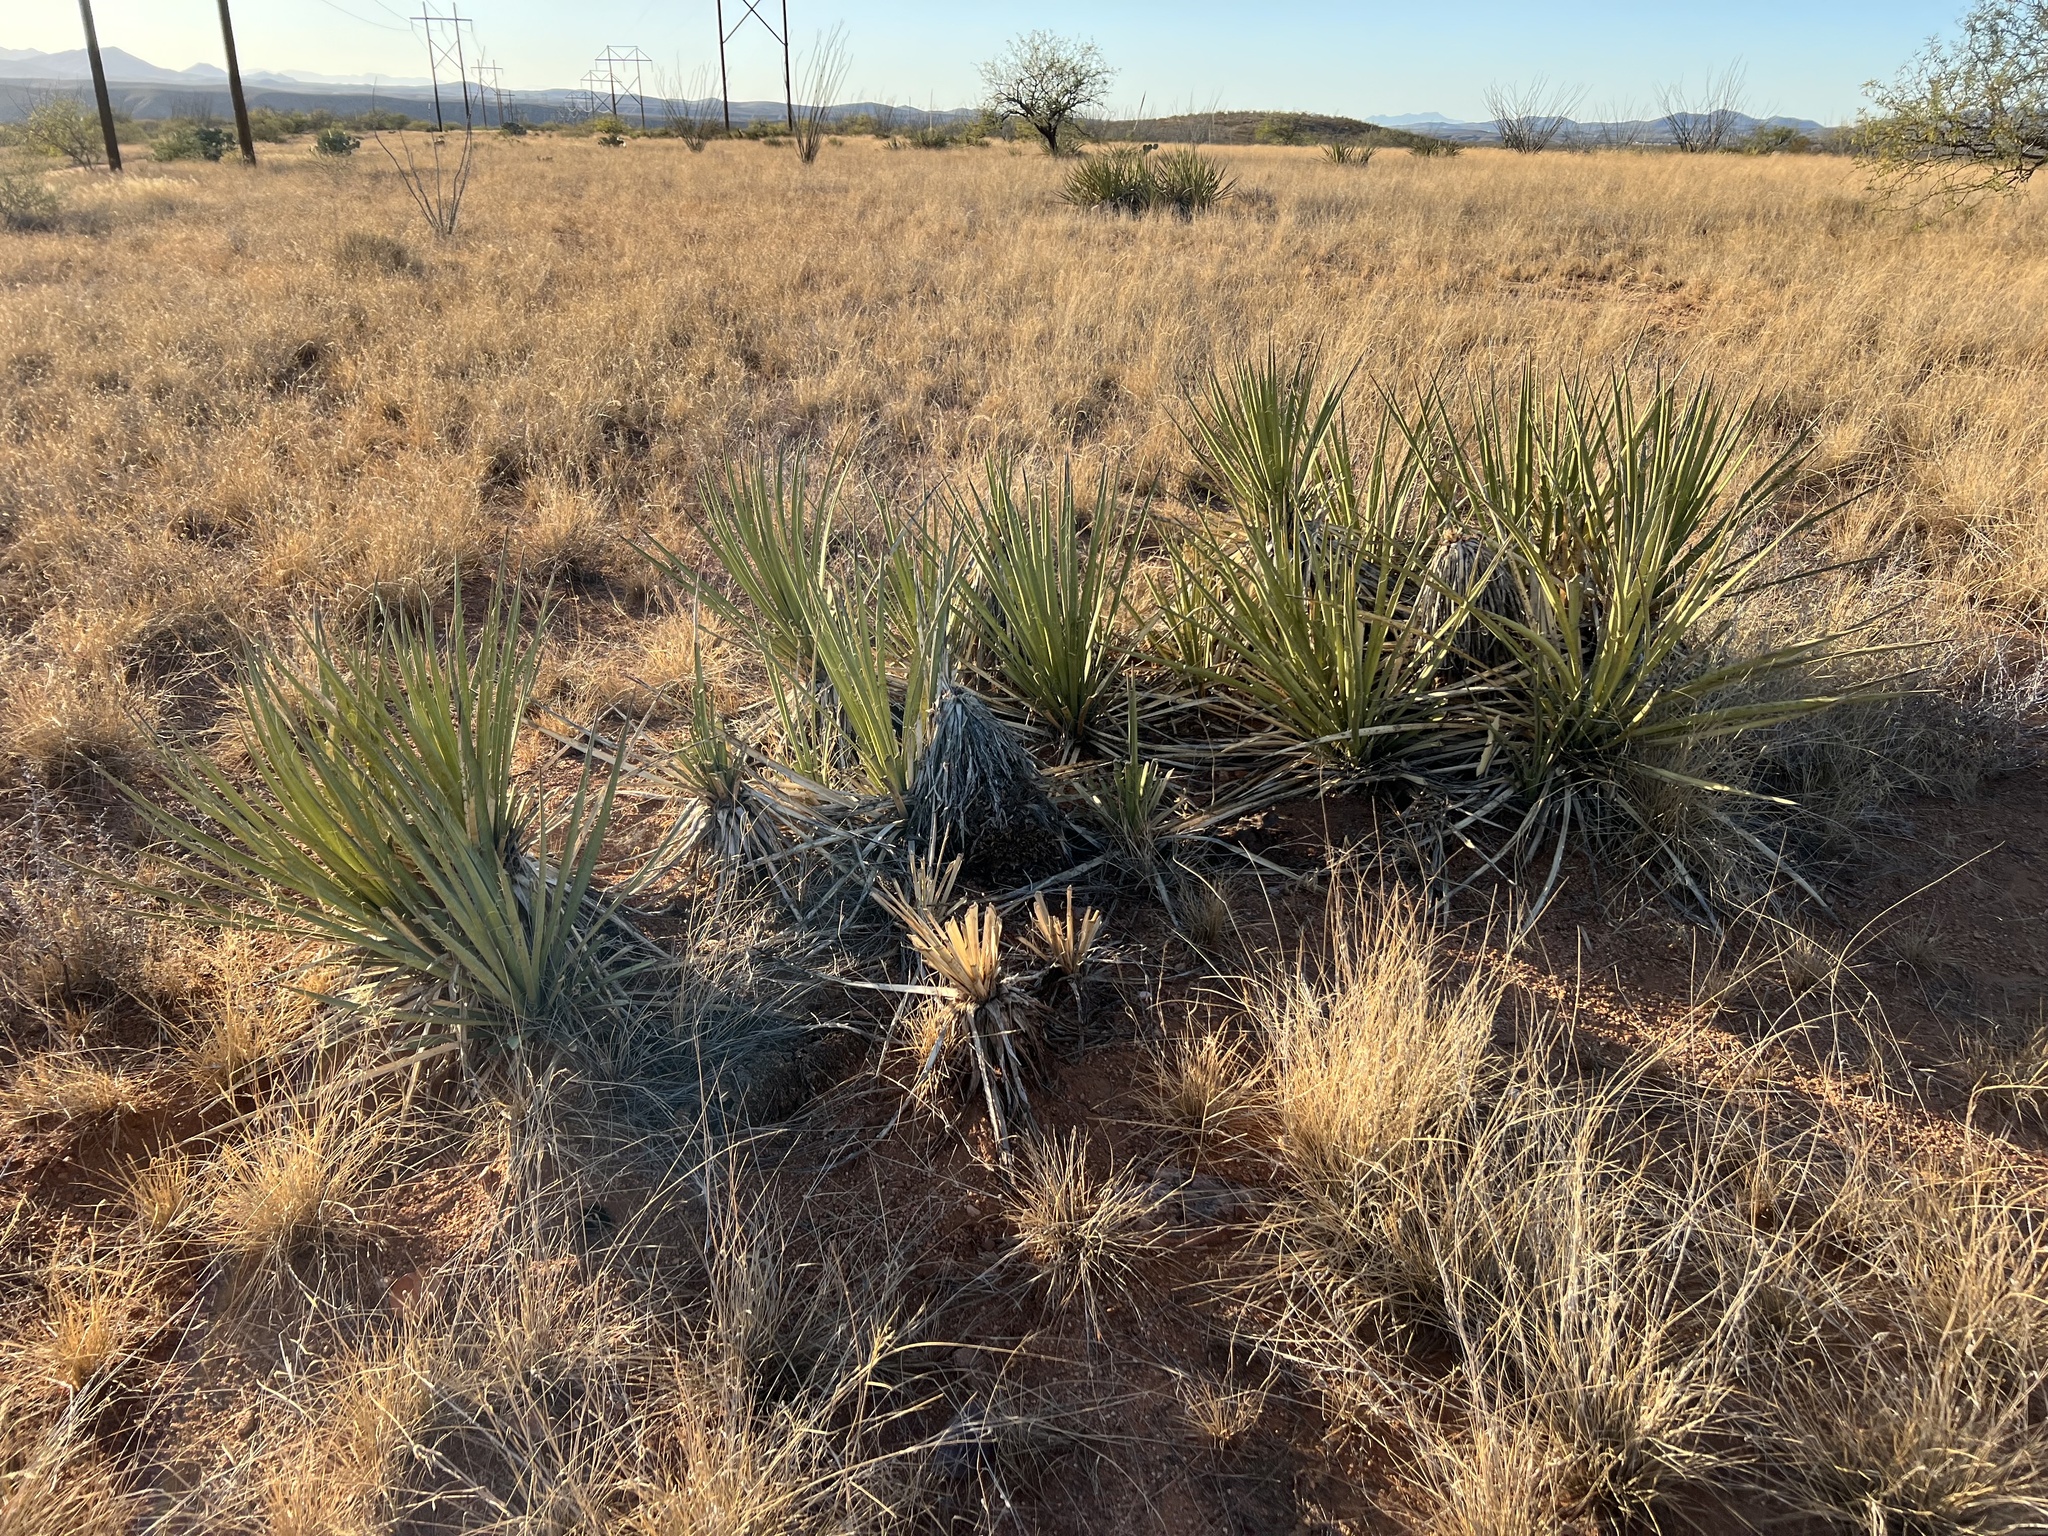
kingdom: Plantae
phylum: Tracheophyta
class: Liliopsida
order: Asparagales
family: Asparagaceae
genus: Yucca
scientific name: Yucca baccata
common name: Banana yucca
